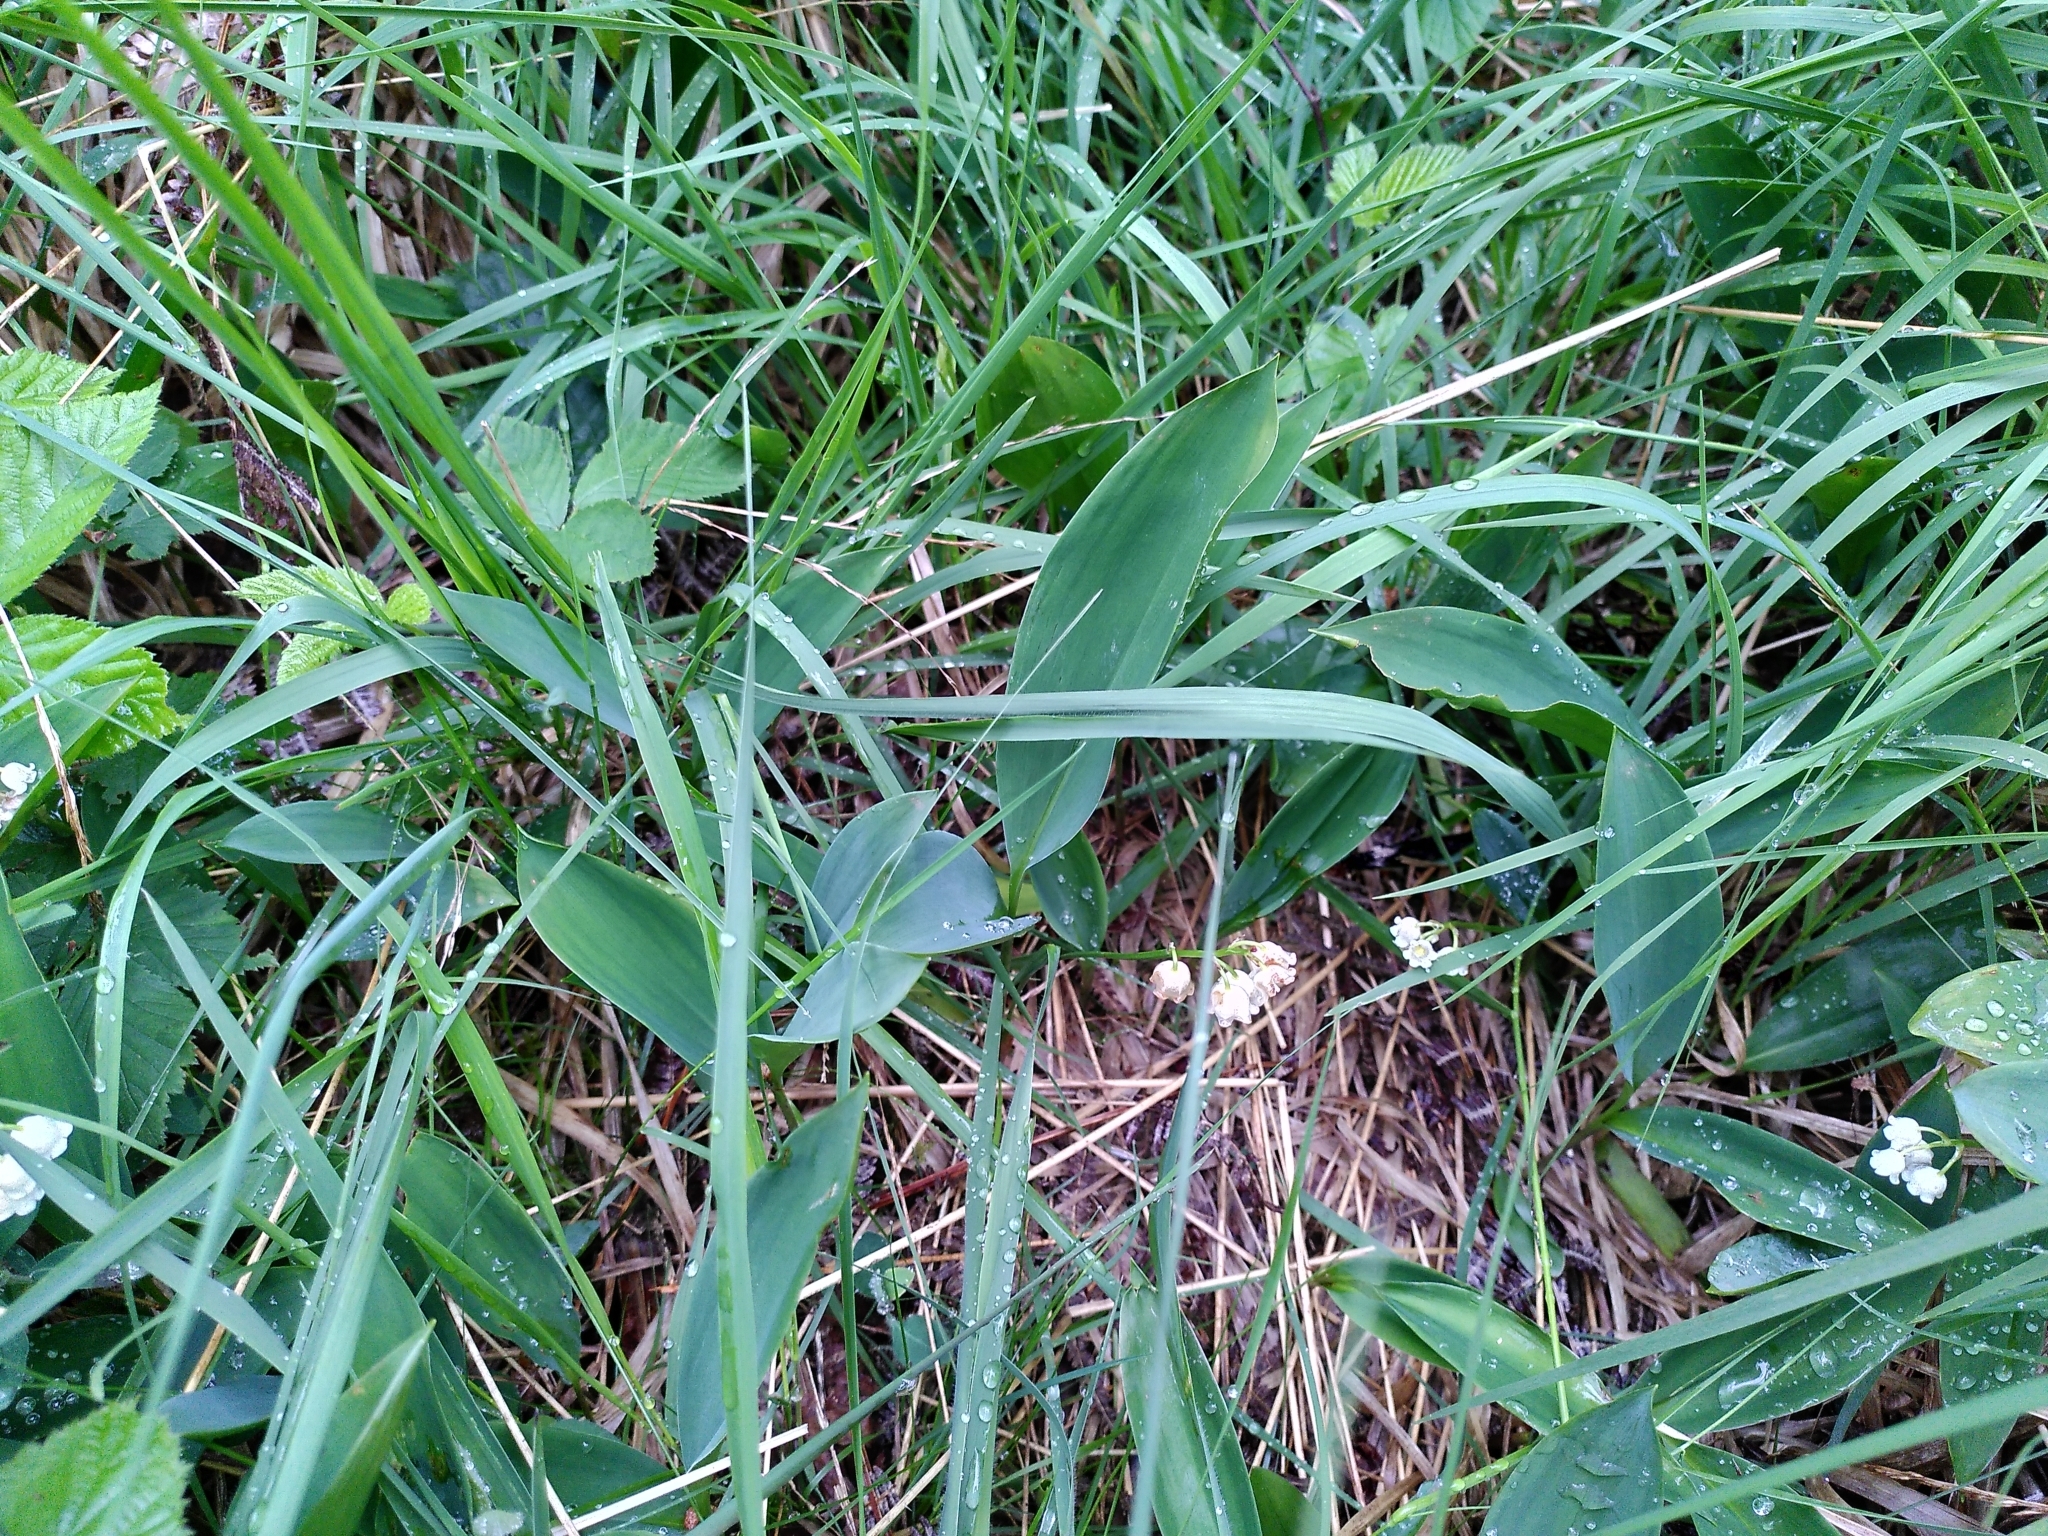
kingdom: Plantae
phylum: Tracheophyta
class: Liliopsida
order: Asparagales
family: Asparagaceae
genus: Convallaria
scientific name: Convallaria majalis
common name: Lily-of-the-valley
